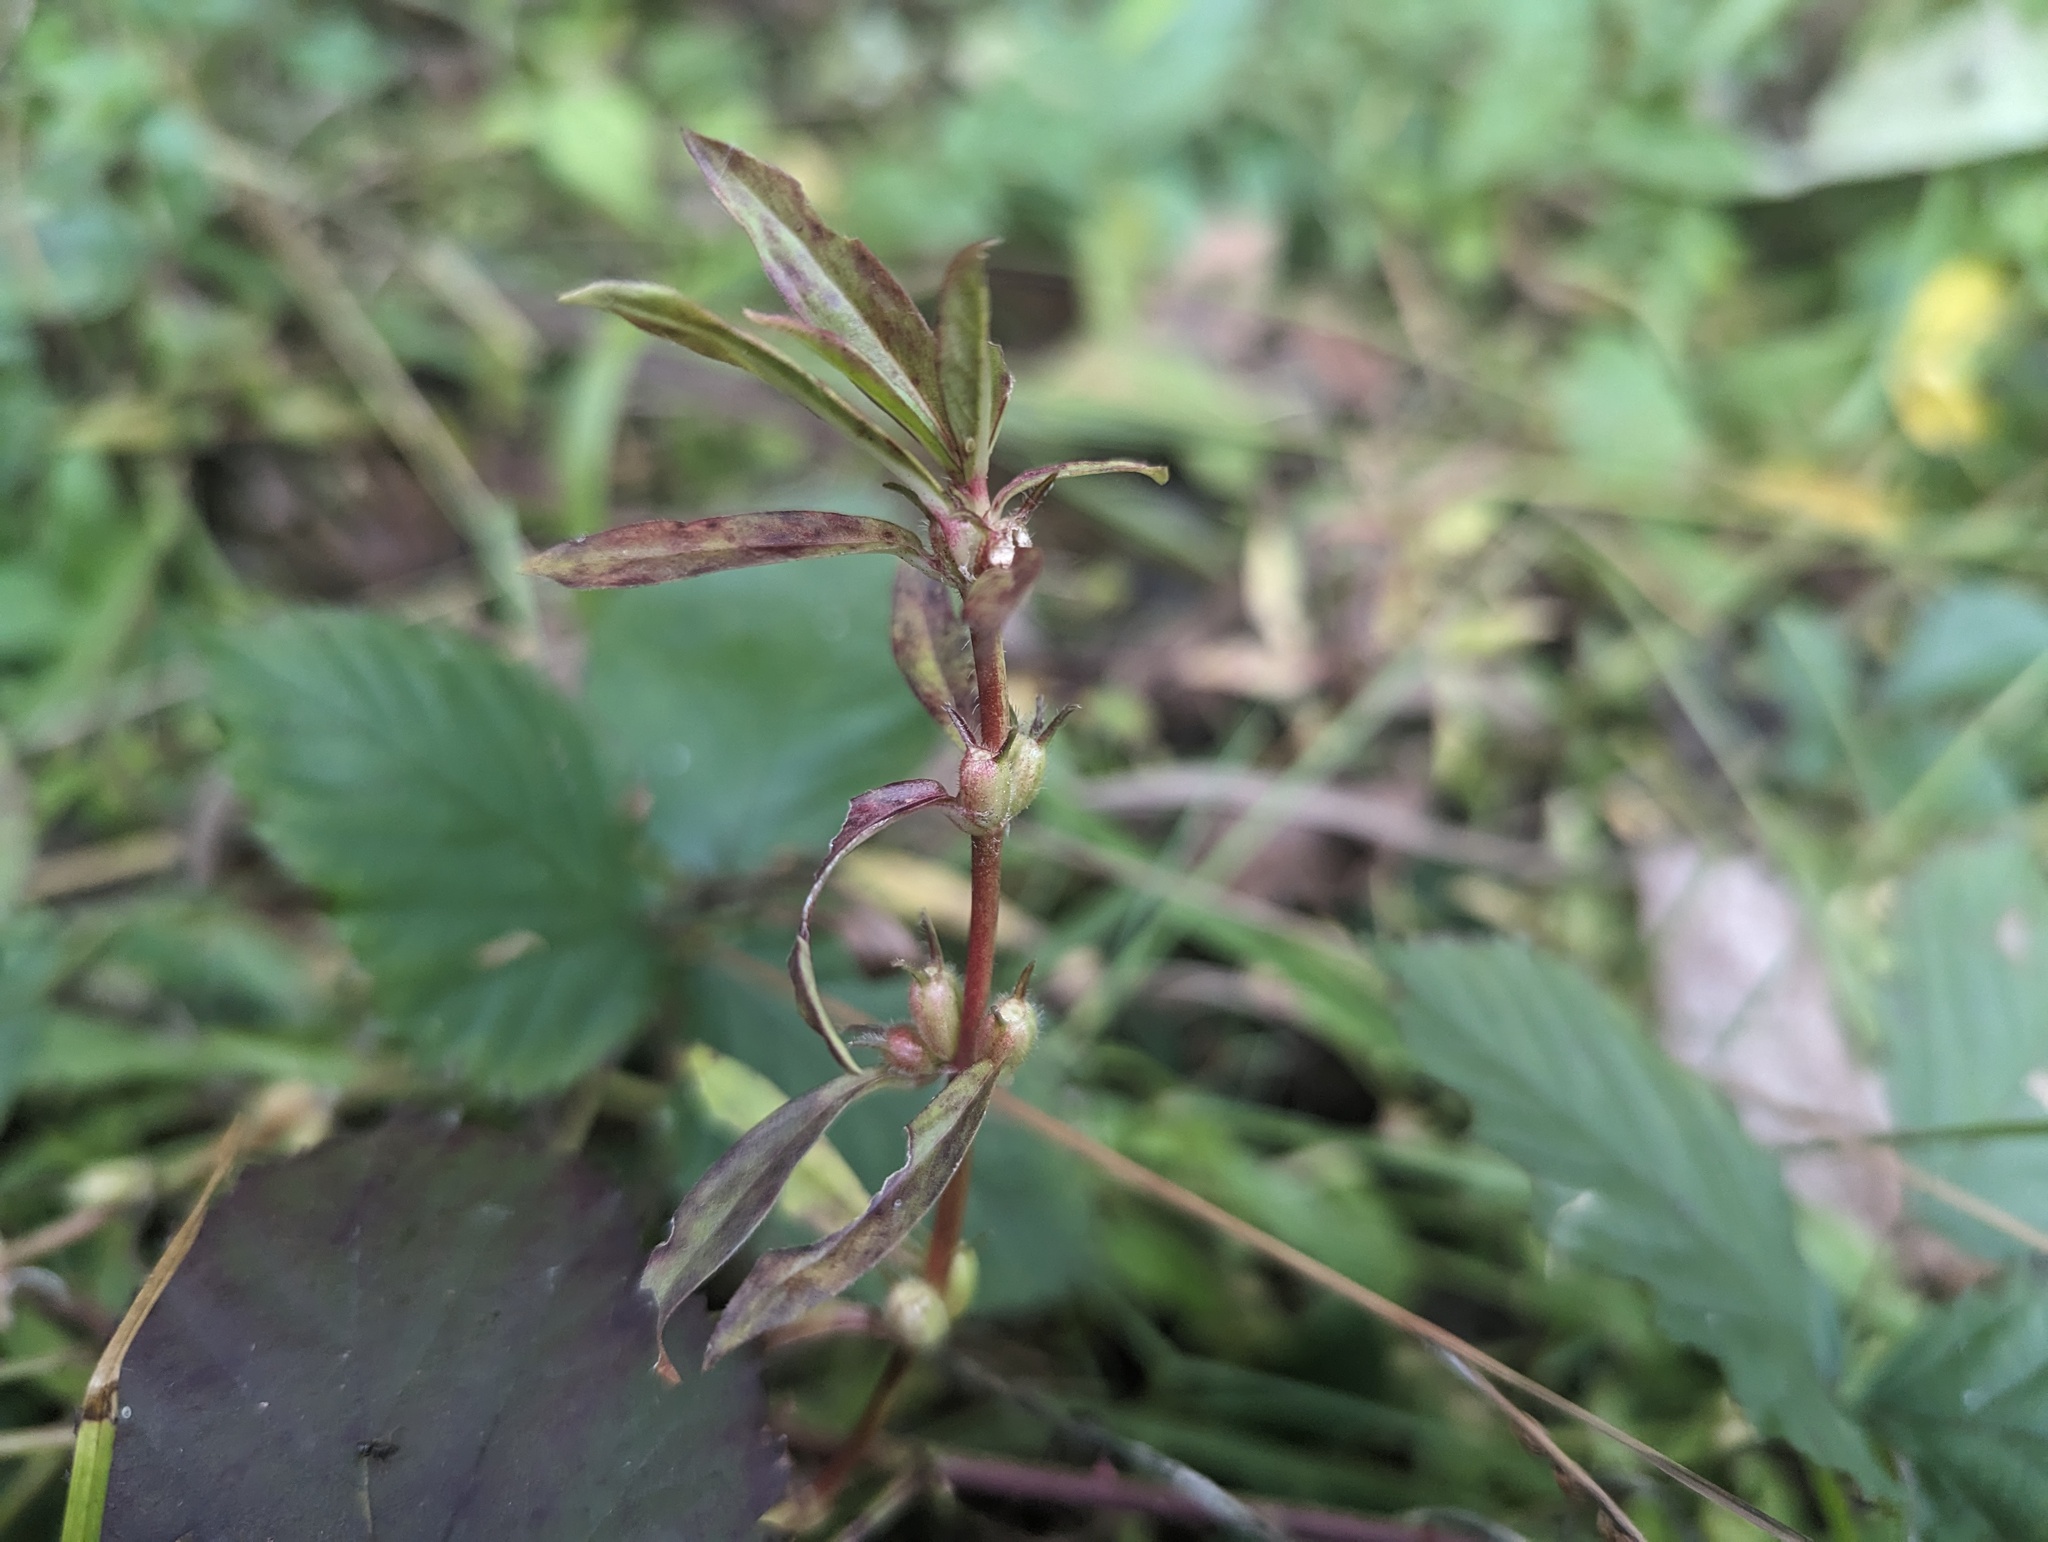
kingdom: Plantae
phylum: Tracheophyta
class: Magnoliopsida
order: Gentianales
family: Rubiaceae
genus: Diodia
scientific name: Diodia virginiana
